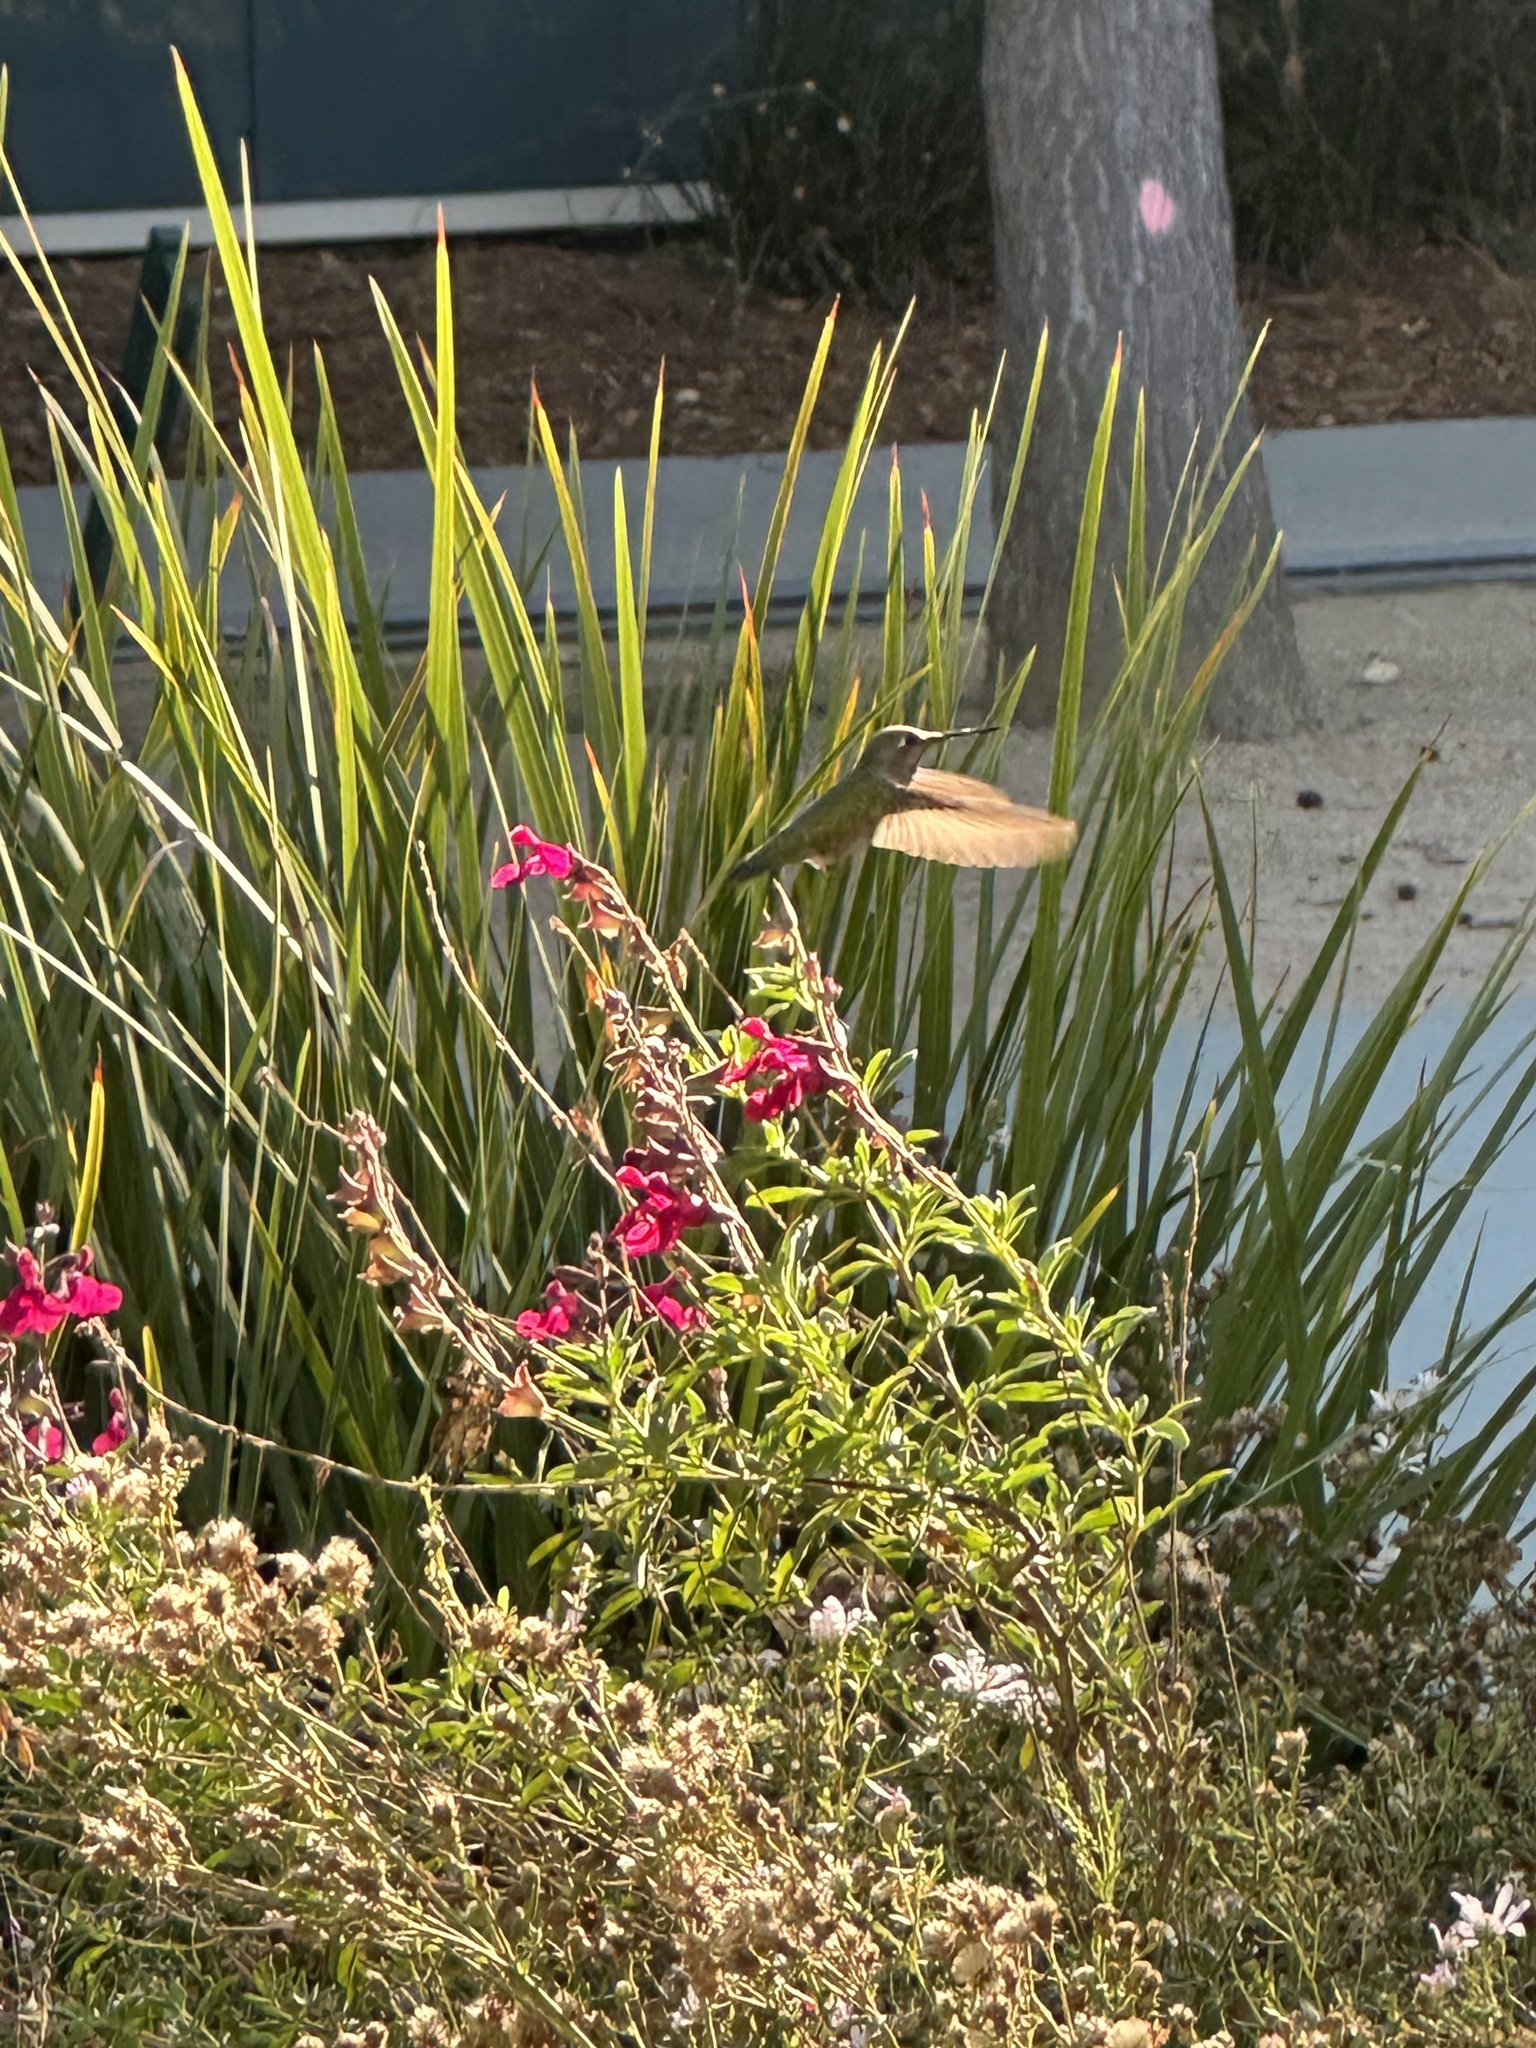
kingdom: Animalia
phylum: Chordata
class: Aves
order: Apodiformes
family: Trochilidae
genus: Calypte
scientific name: Calypte anna
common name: Anna's hummingbird
